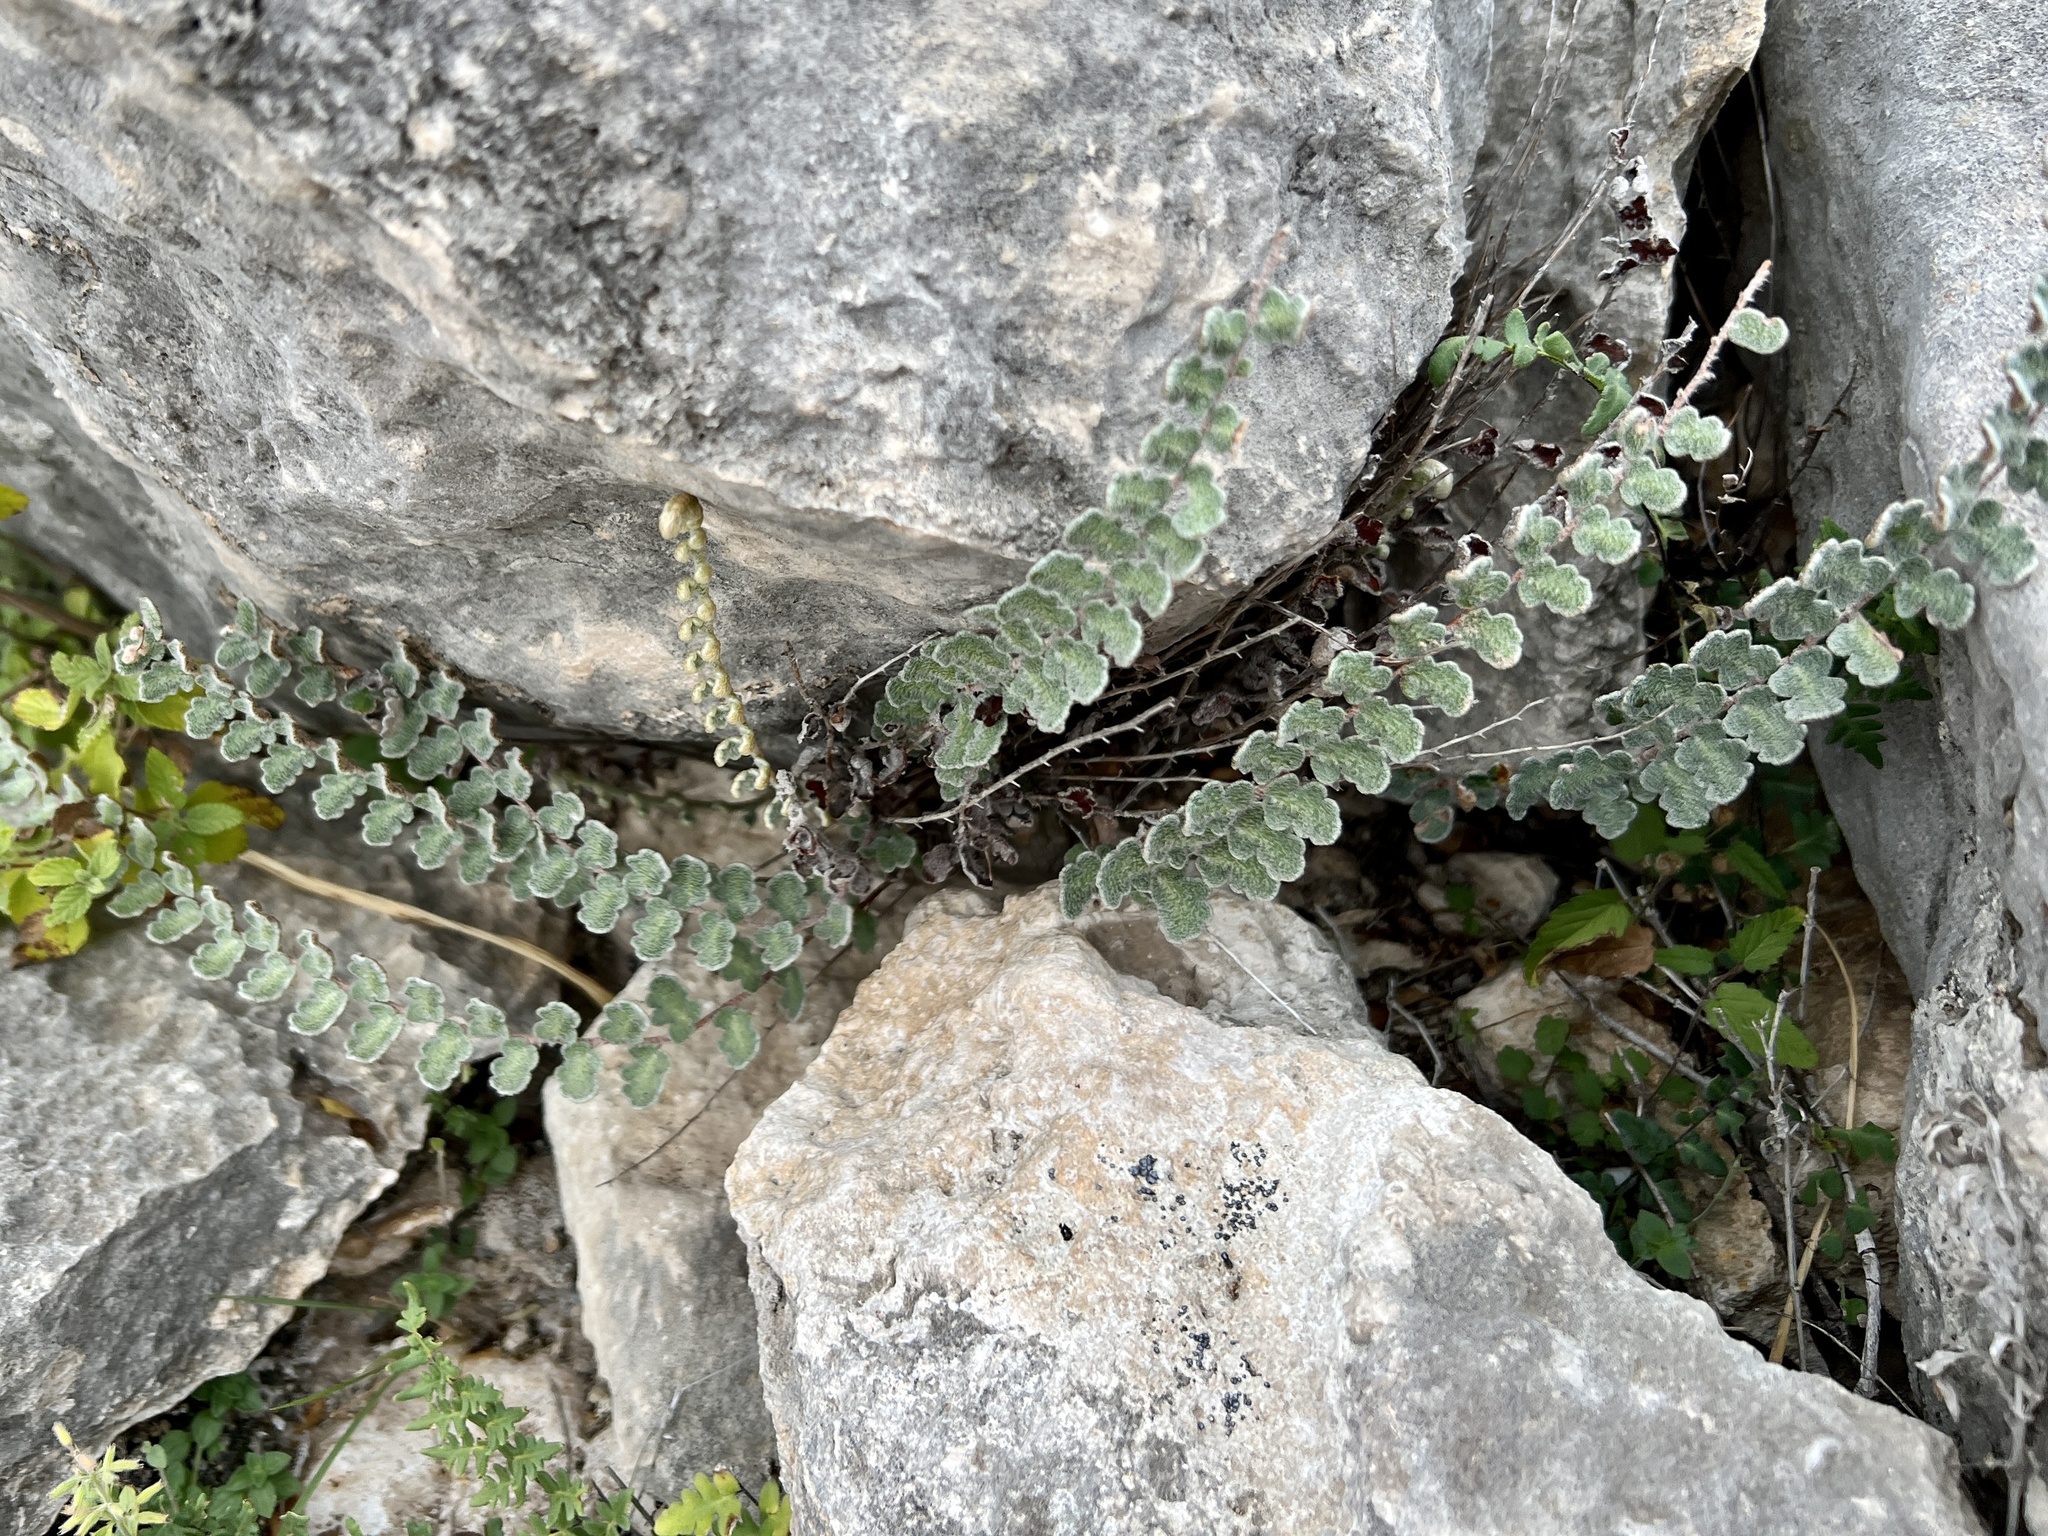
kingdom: Plantae
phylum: Tracheophyta
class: Polypodiopsida
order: Polypodiales
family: Pteridaceae
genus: Astrolepis
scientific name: Astrolepis integerrima
